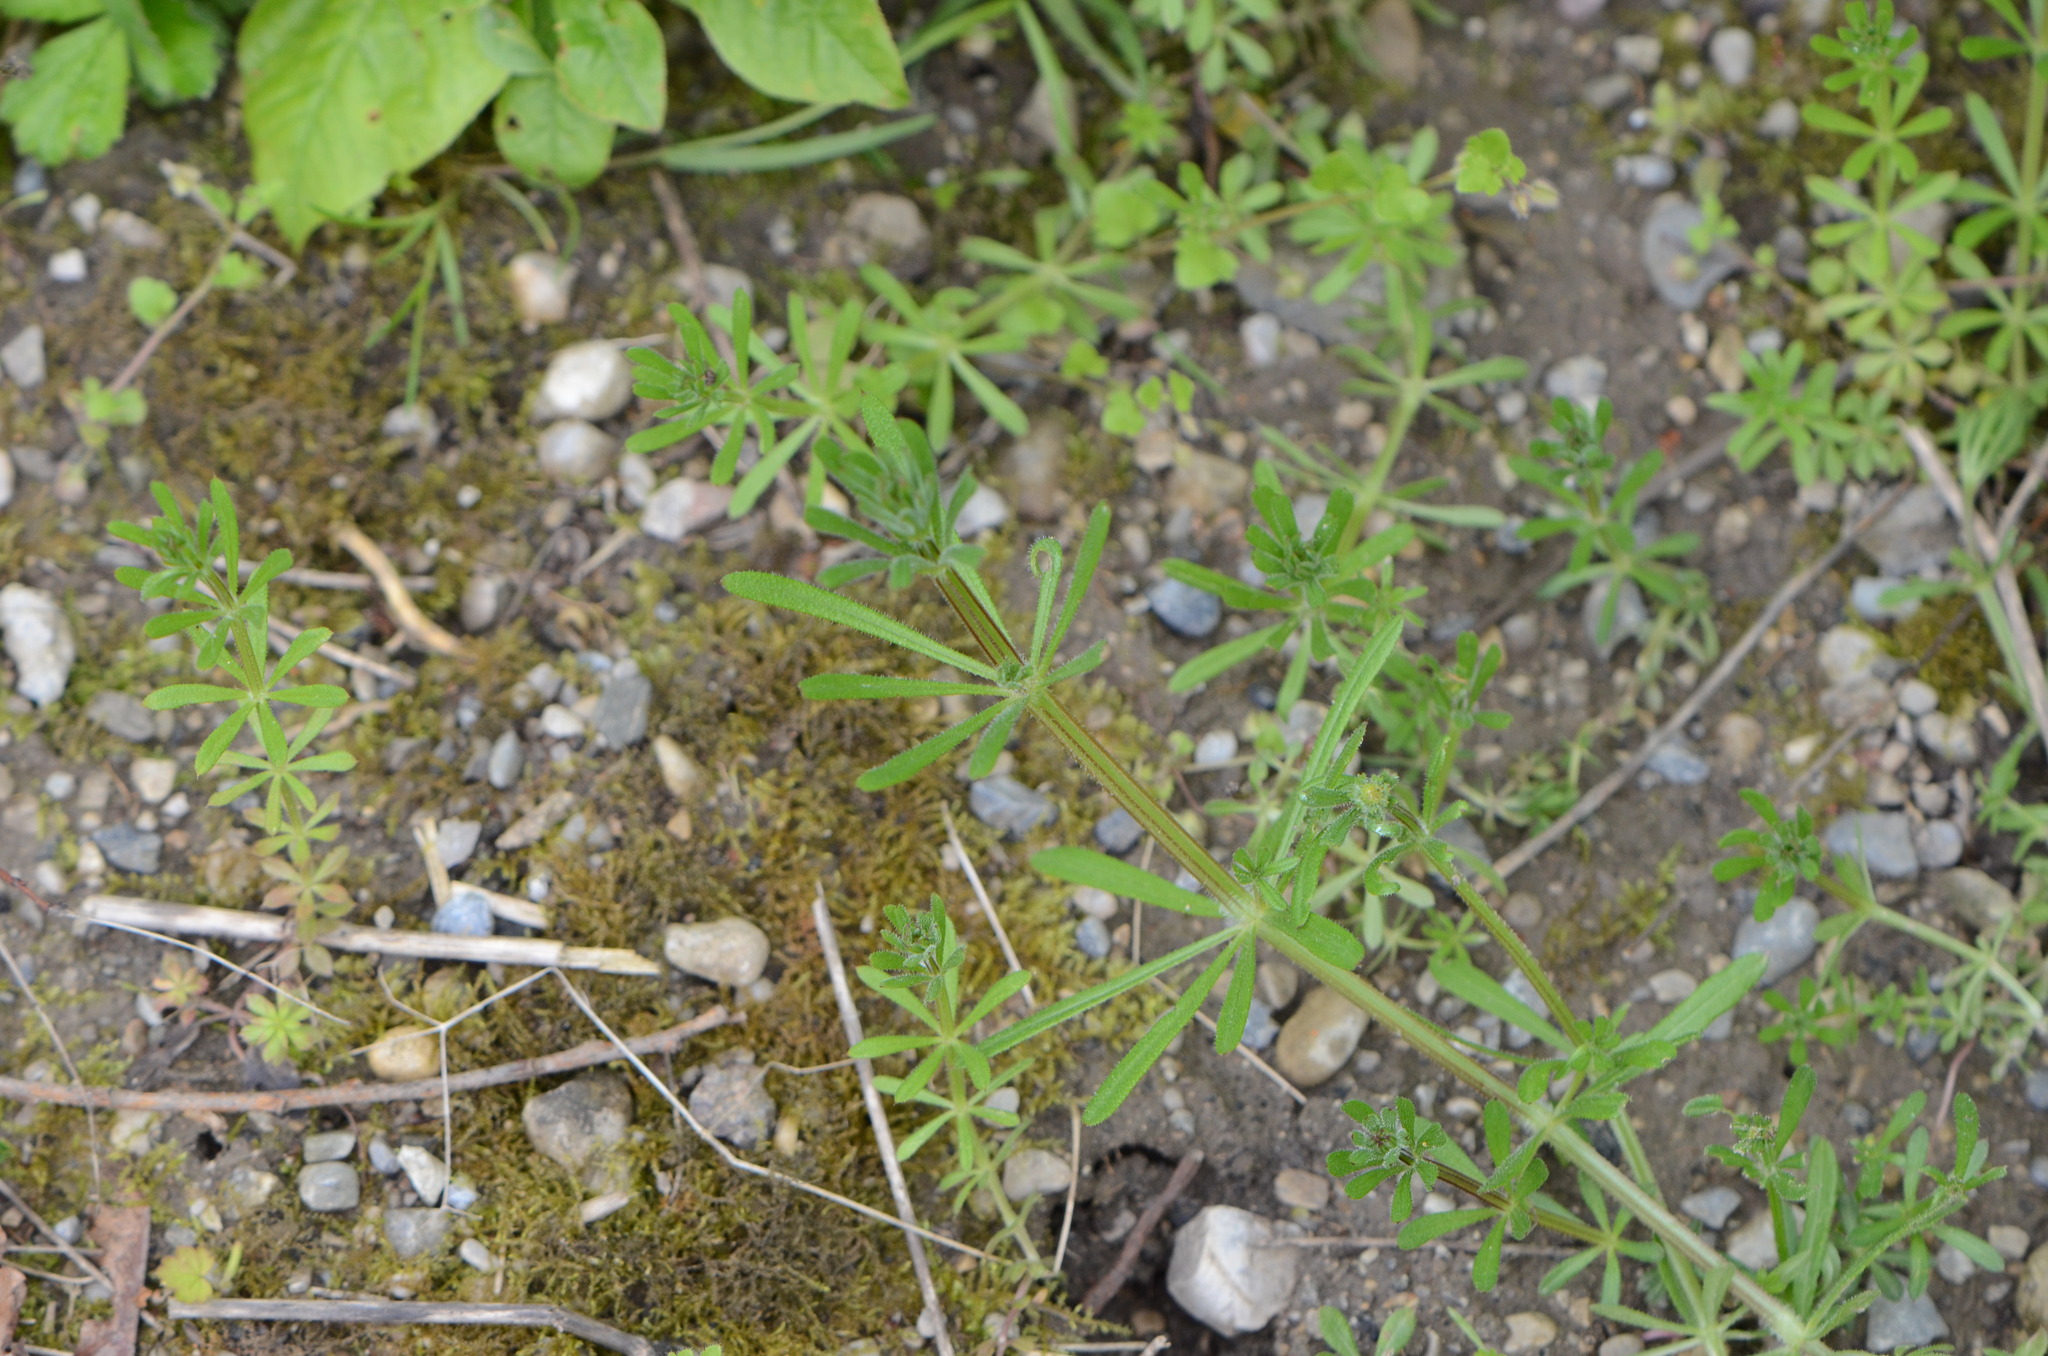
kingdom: Plantae
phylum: Tracheophyta
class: Magnoliopsida
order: Gentianales
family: Rubiaceae
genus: Galium
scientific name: Galium aparine
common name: Cleavers
